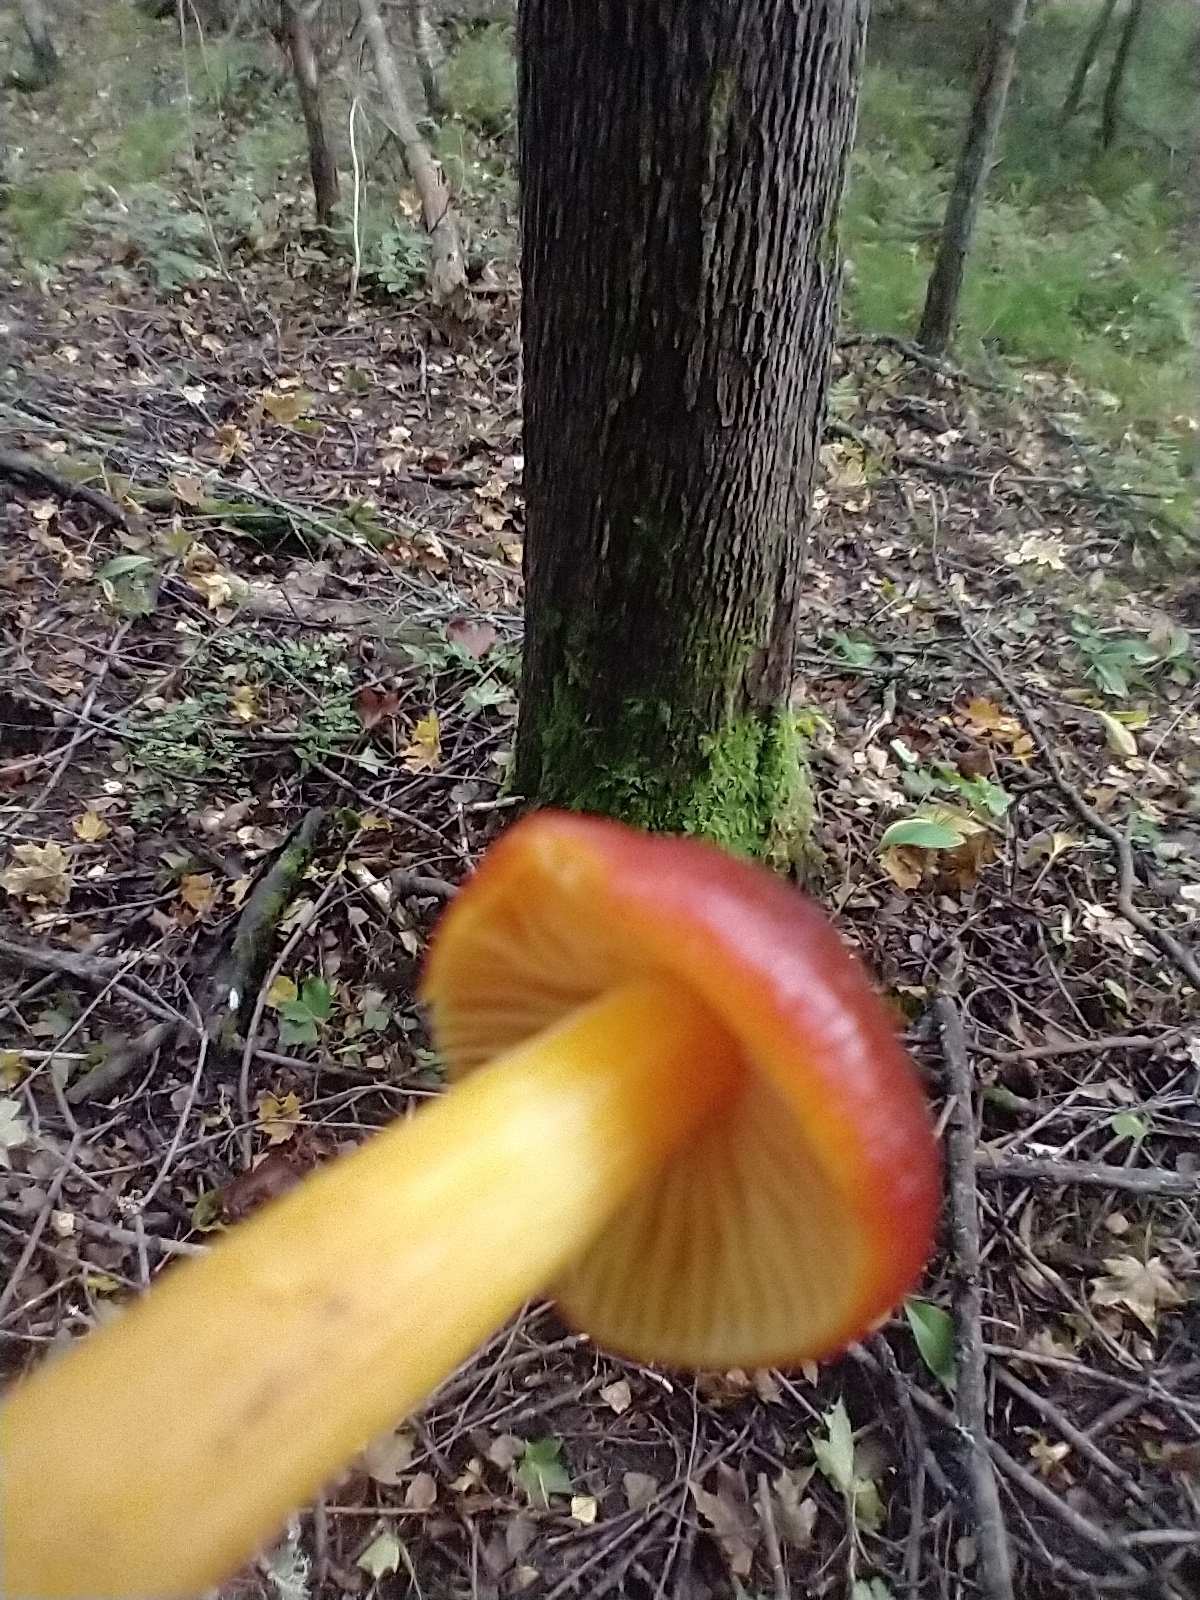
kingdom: Fungi
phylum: Basidiomycota
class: Agaricomycetes
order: Agaricales
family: Hygrophoraceae
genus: Hygrocybe
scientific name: Hygrocybe coccinea
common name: Scarlet hood
